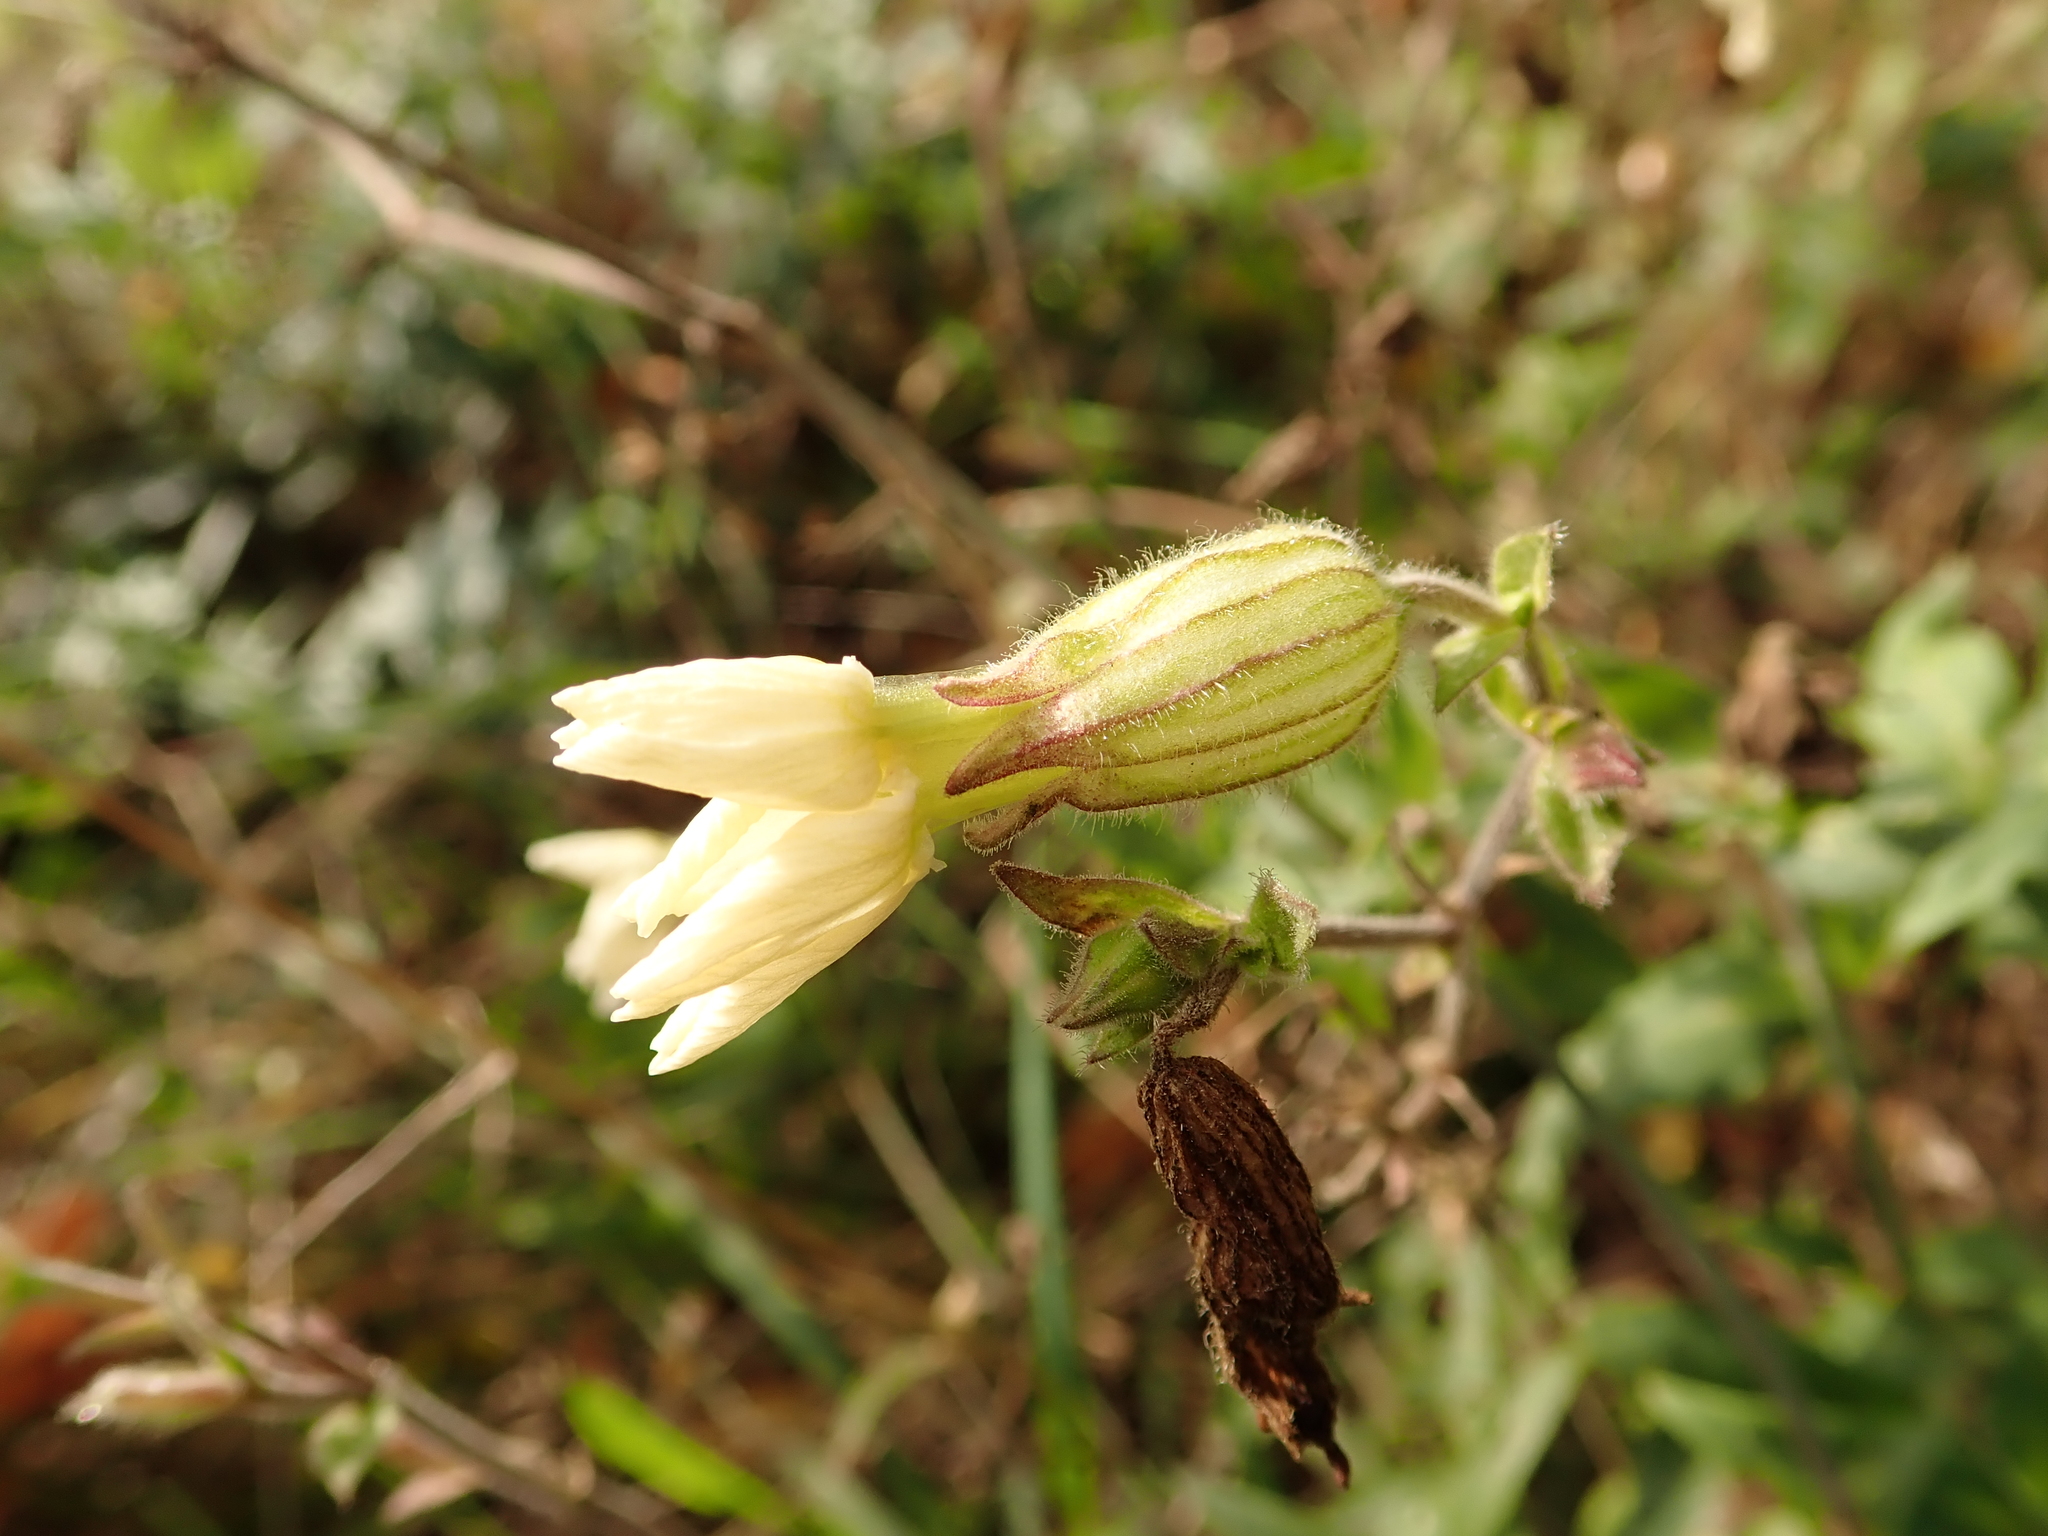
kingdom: Plantae
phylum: Tracheophyta
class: Magnoliopsida
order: Caryophyllales
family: Caryophyllaceae
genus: Silene
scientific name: Silene latifolia
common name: White campion
